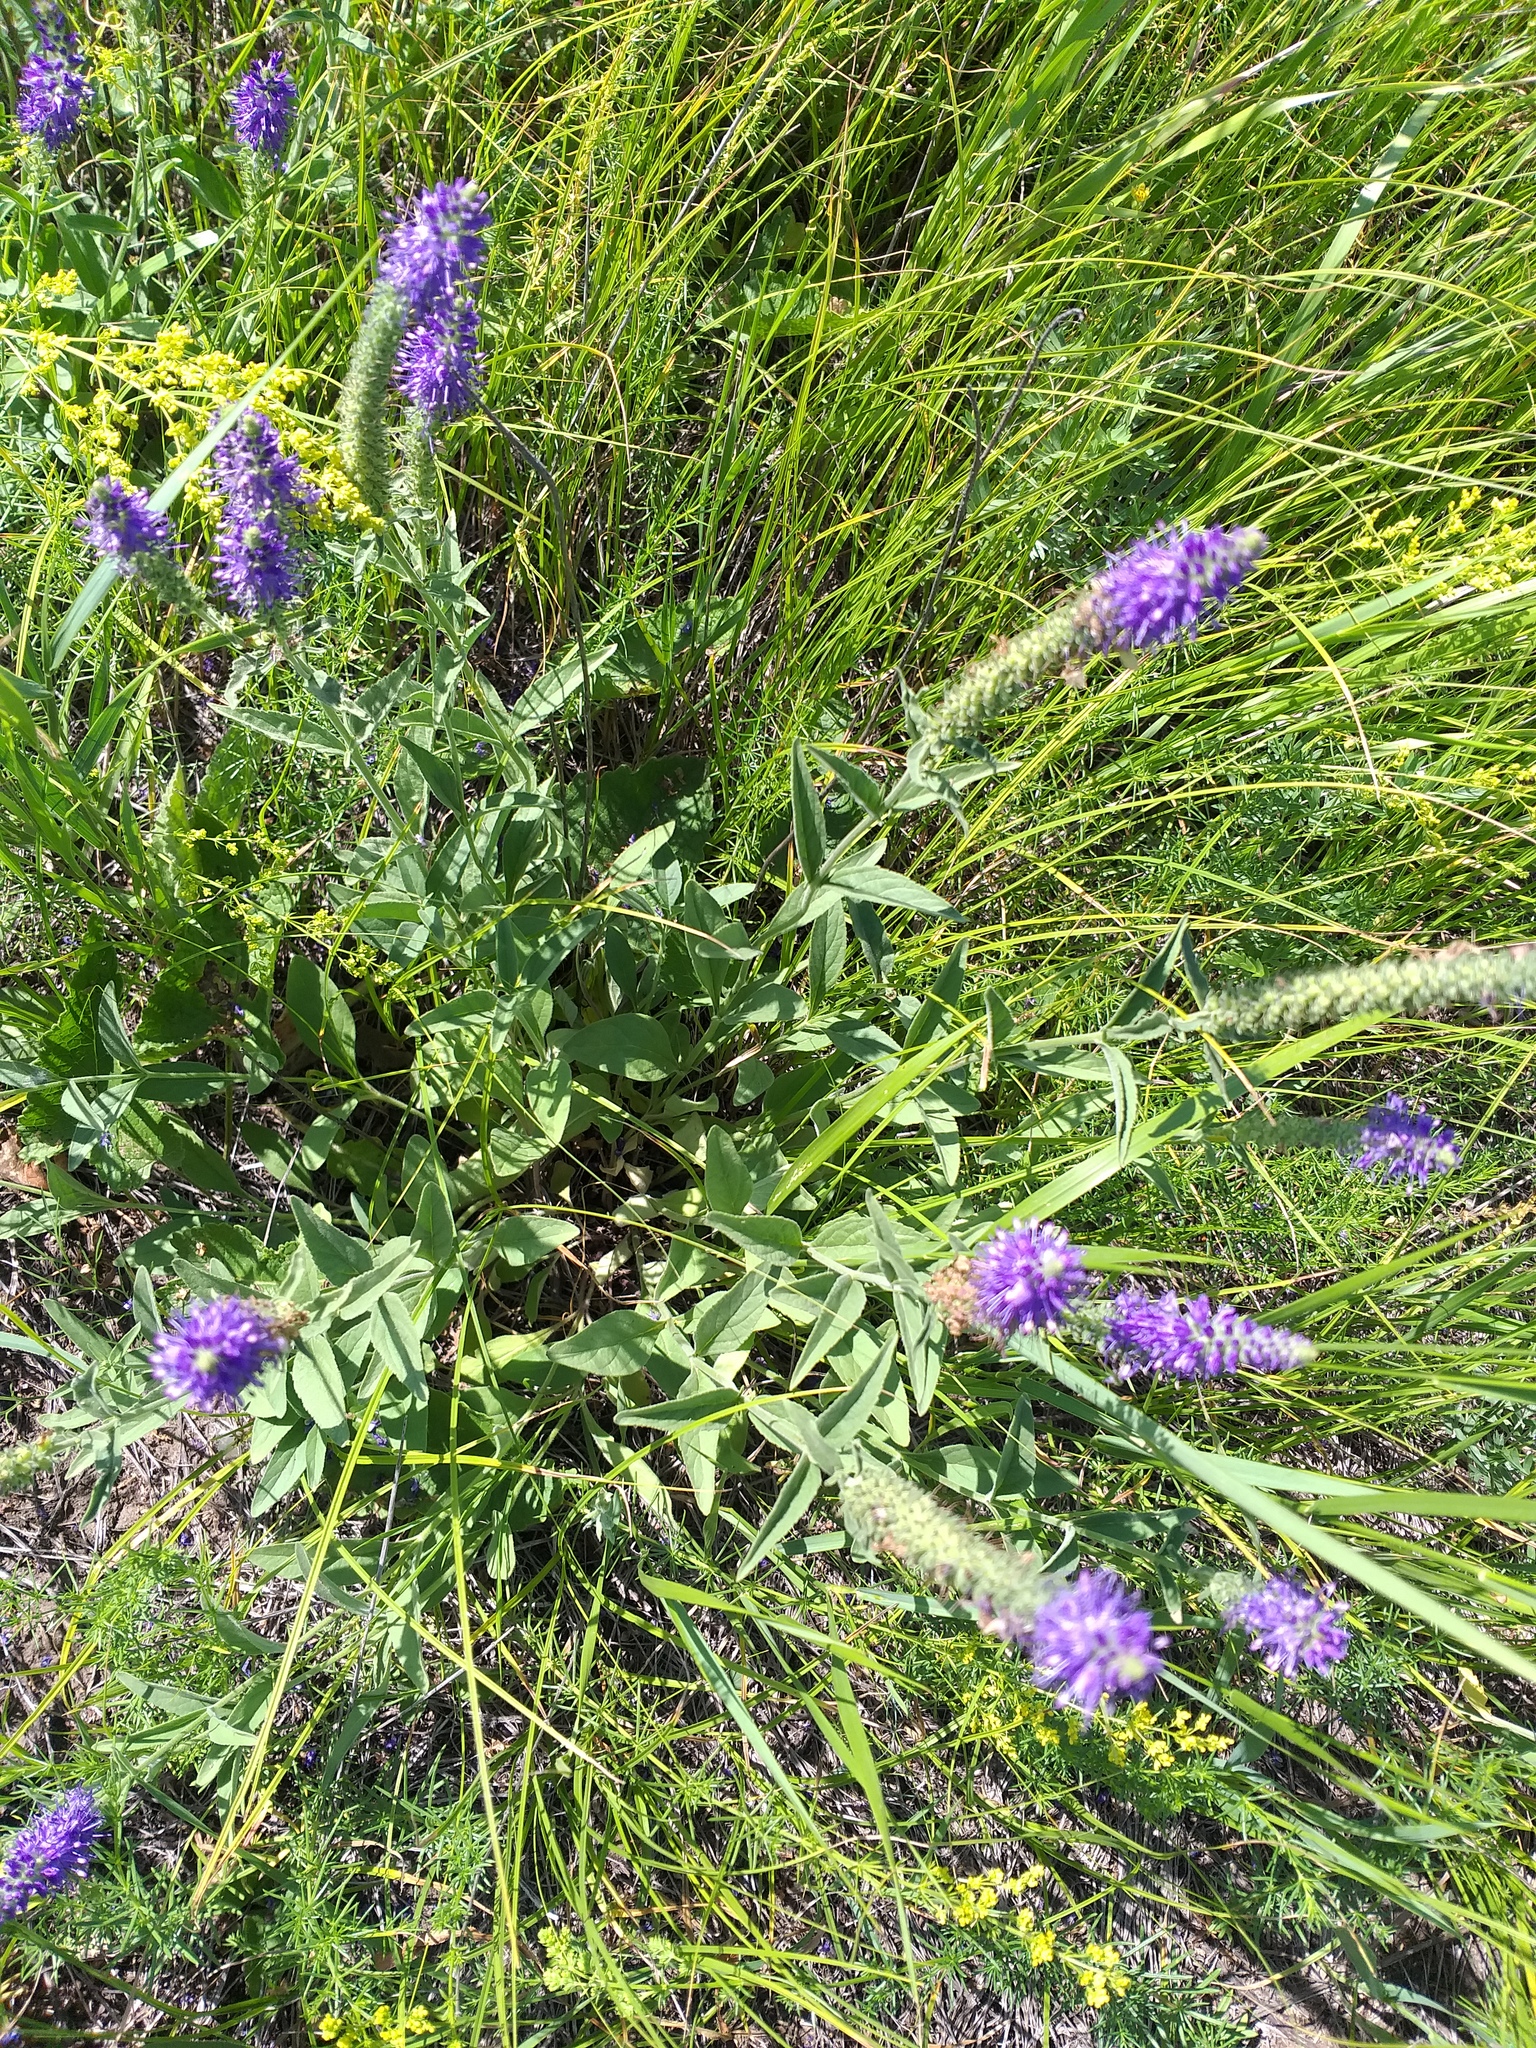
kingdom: Plantae
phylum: Tracheophyta
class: Magnoliopsida
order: Lamiales
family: Plantaginaceae
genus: Veronica
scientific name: Veronica barrelieri
